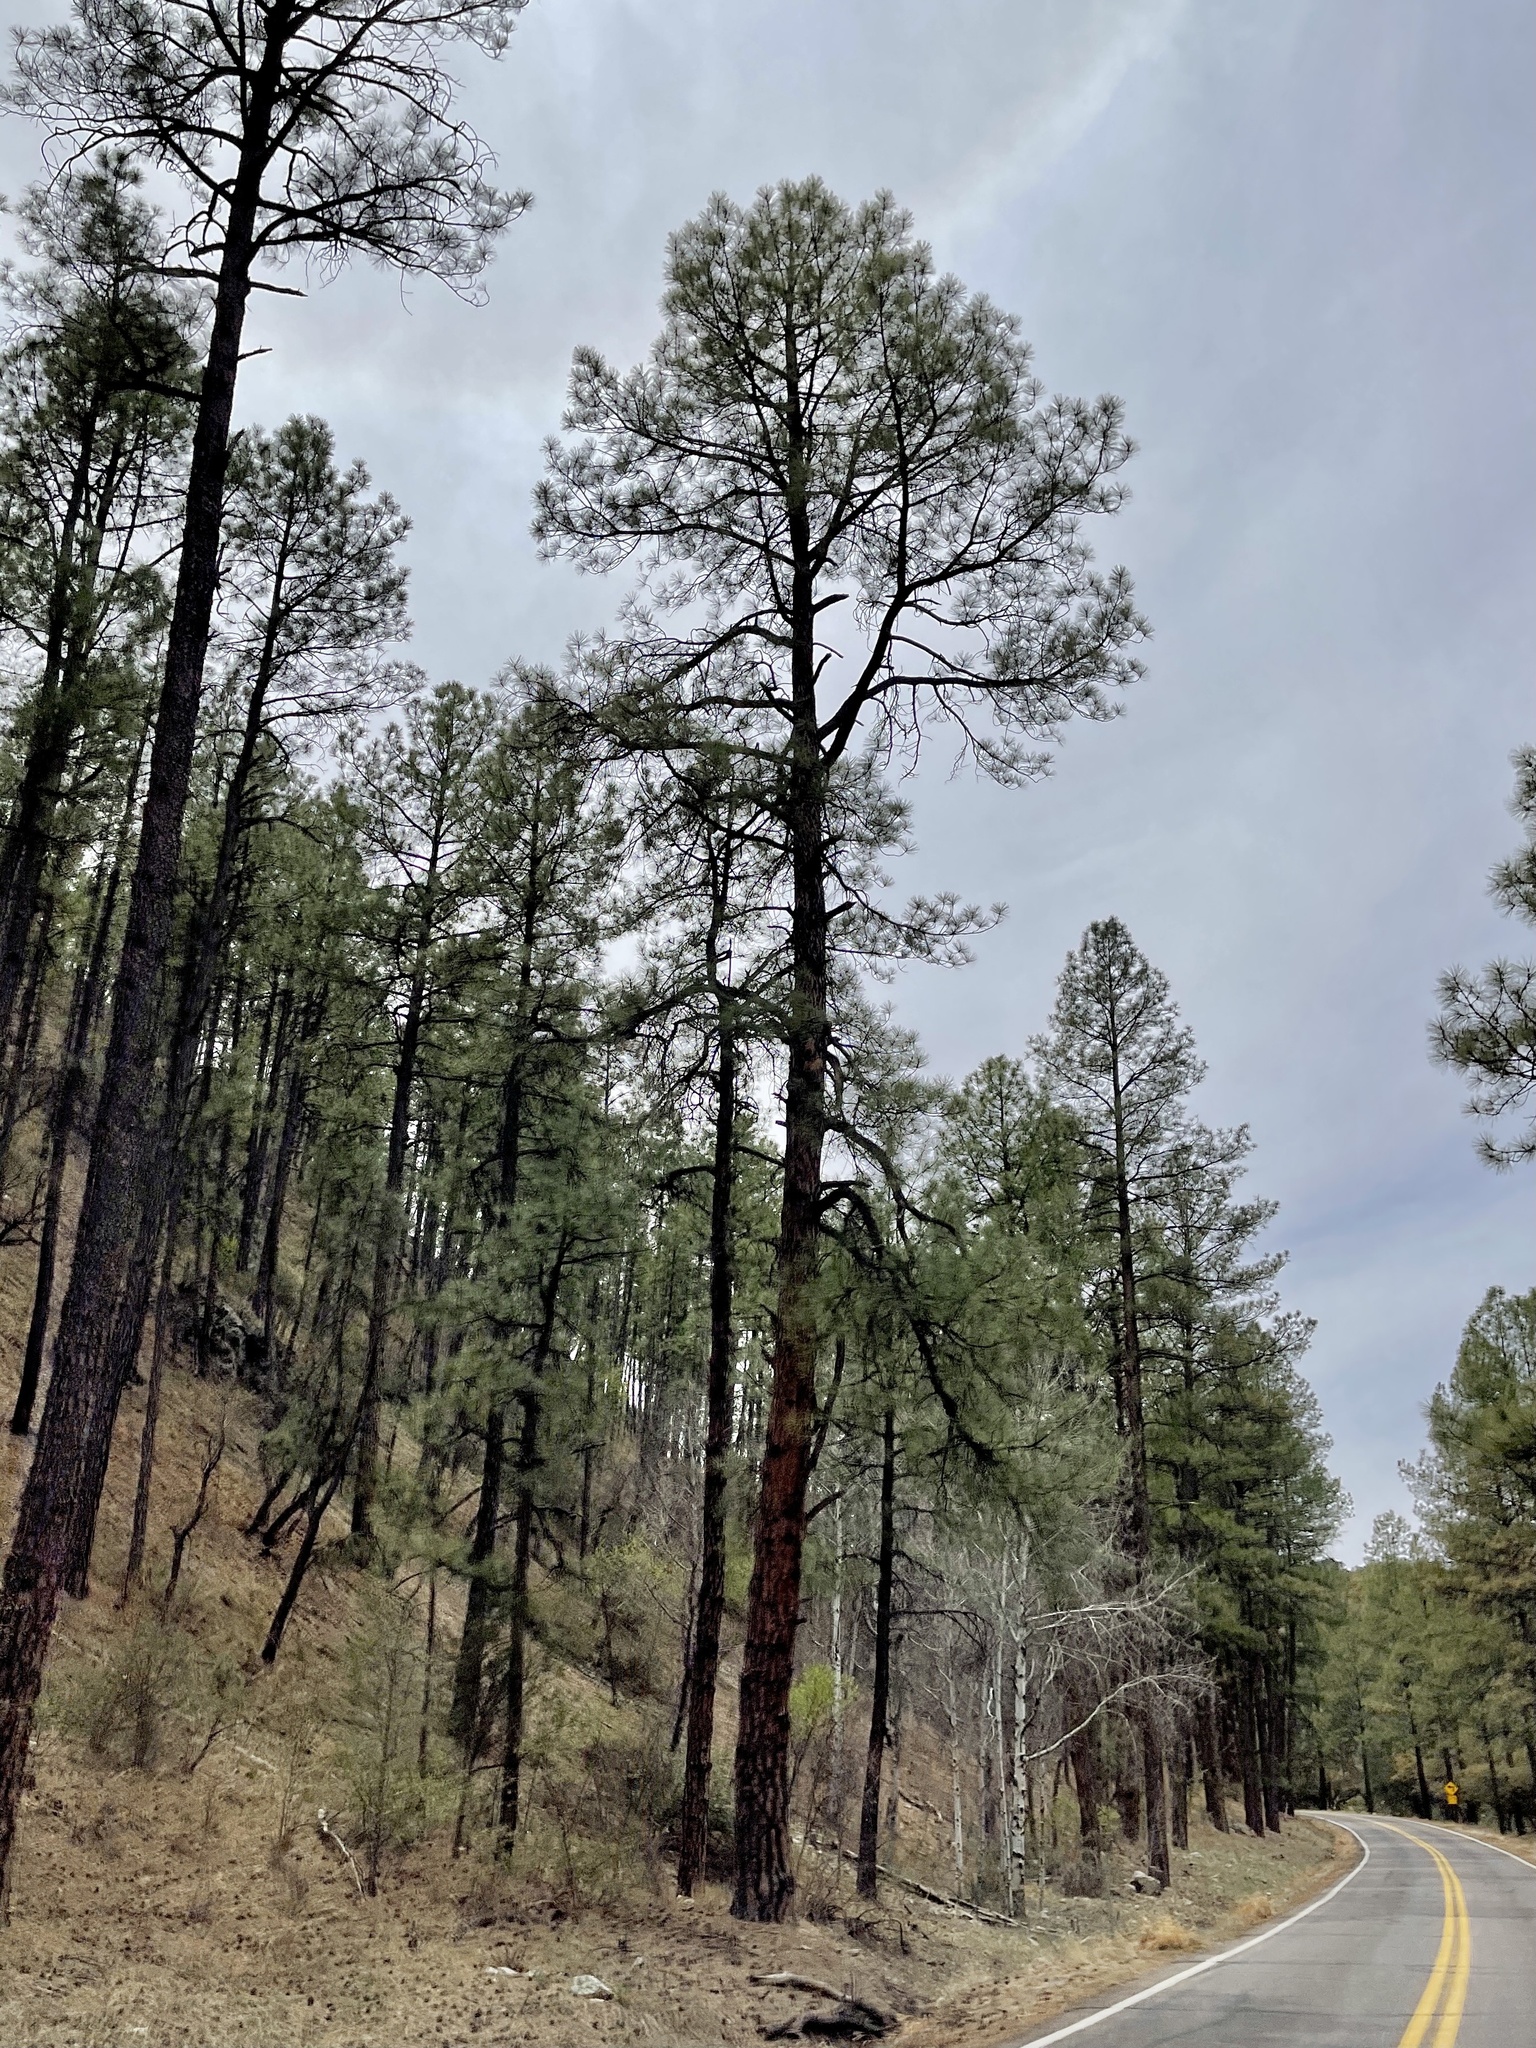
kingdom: Plantae
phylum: Tracheophyta
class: Pinopsida
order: Pinales
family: Pinaceae
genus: Pinus
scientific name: Pinus ponderosa
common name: Western yellow-pine
